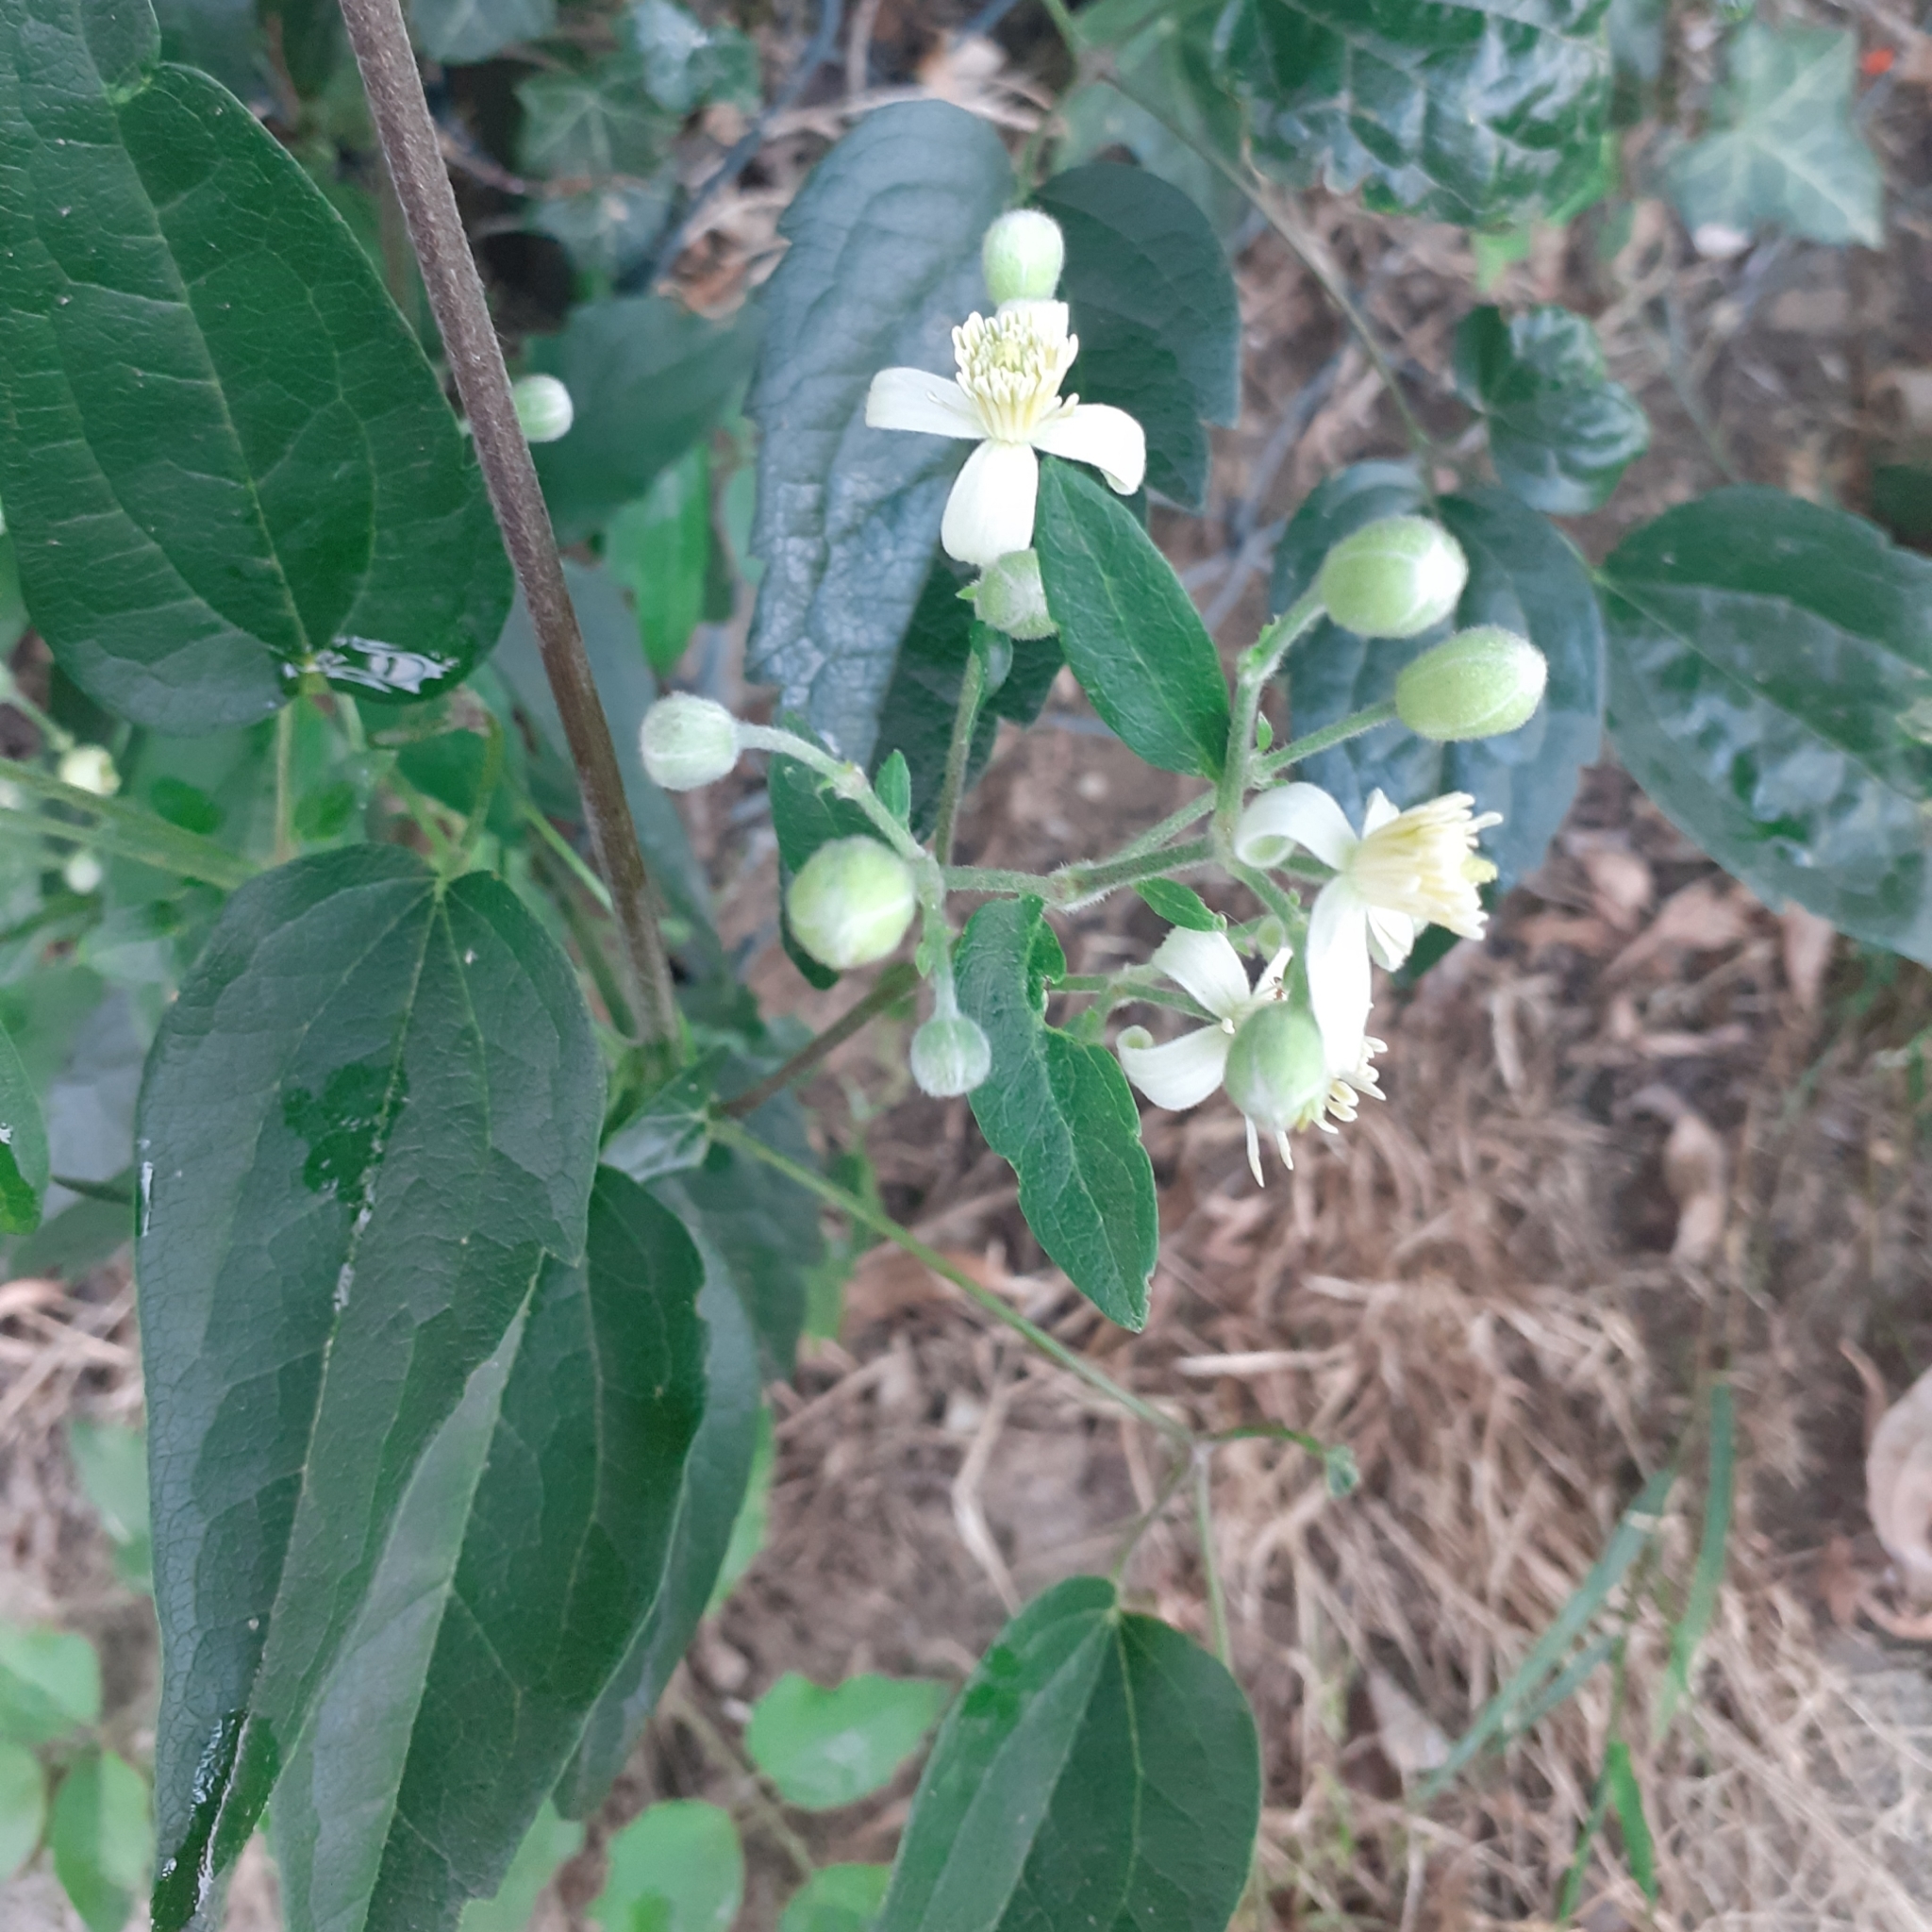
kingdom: Plantae
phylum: Tracheophyta
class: Magnoliopsida
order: Ranunculales
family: Ranunculaceae
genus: Clematis
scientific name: Clematis vitalba
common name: Evergreen clematis
